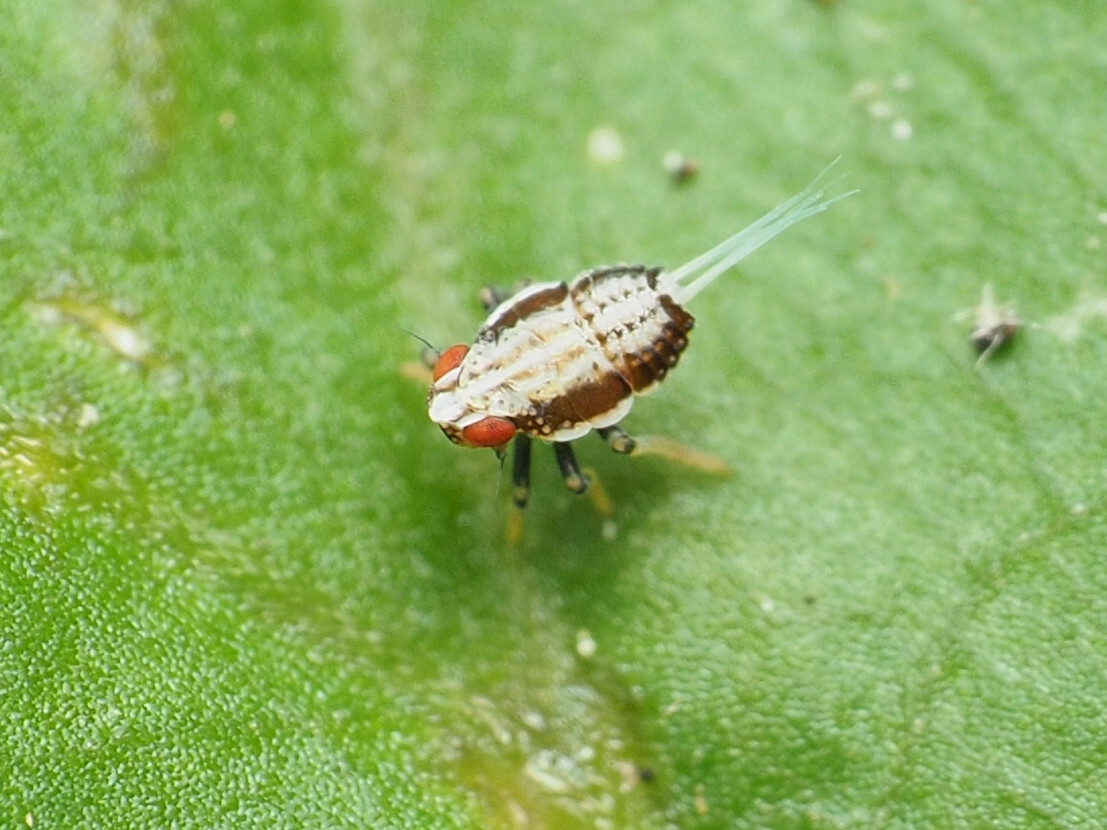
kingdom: Animalia
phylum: Arthropoda
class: Insecta
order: Hemiptera
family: Issidae
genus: Thionia
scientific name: Thionia bullata
